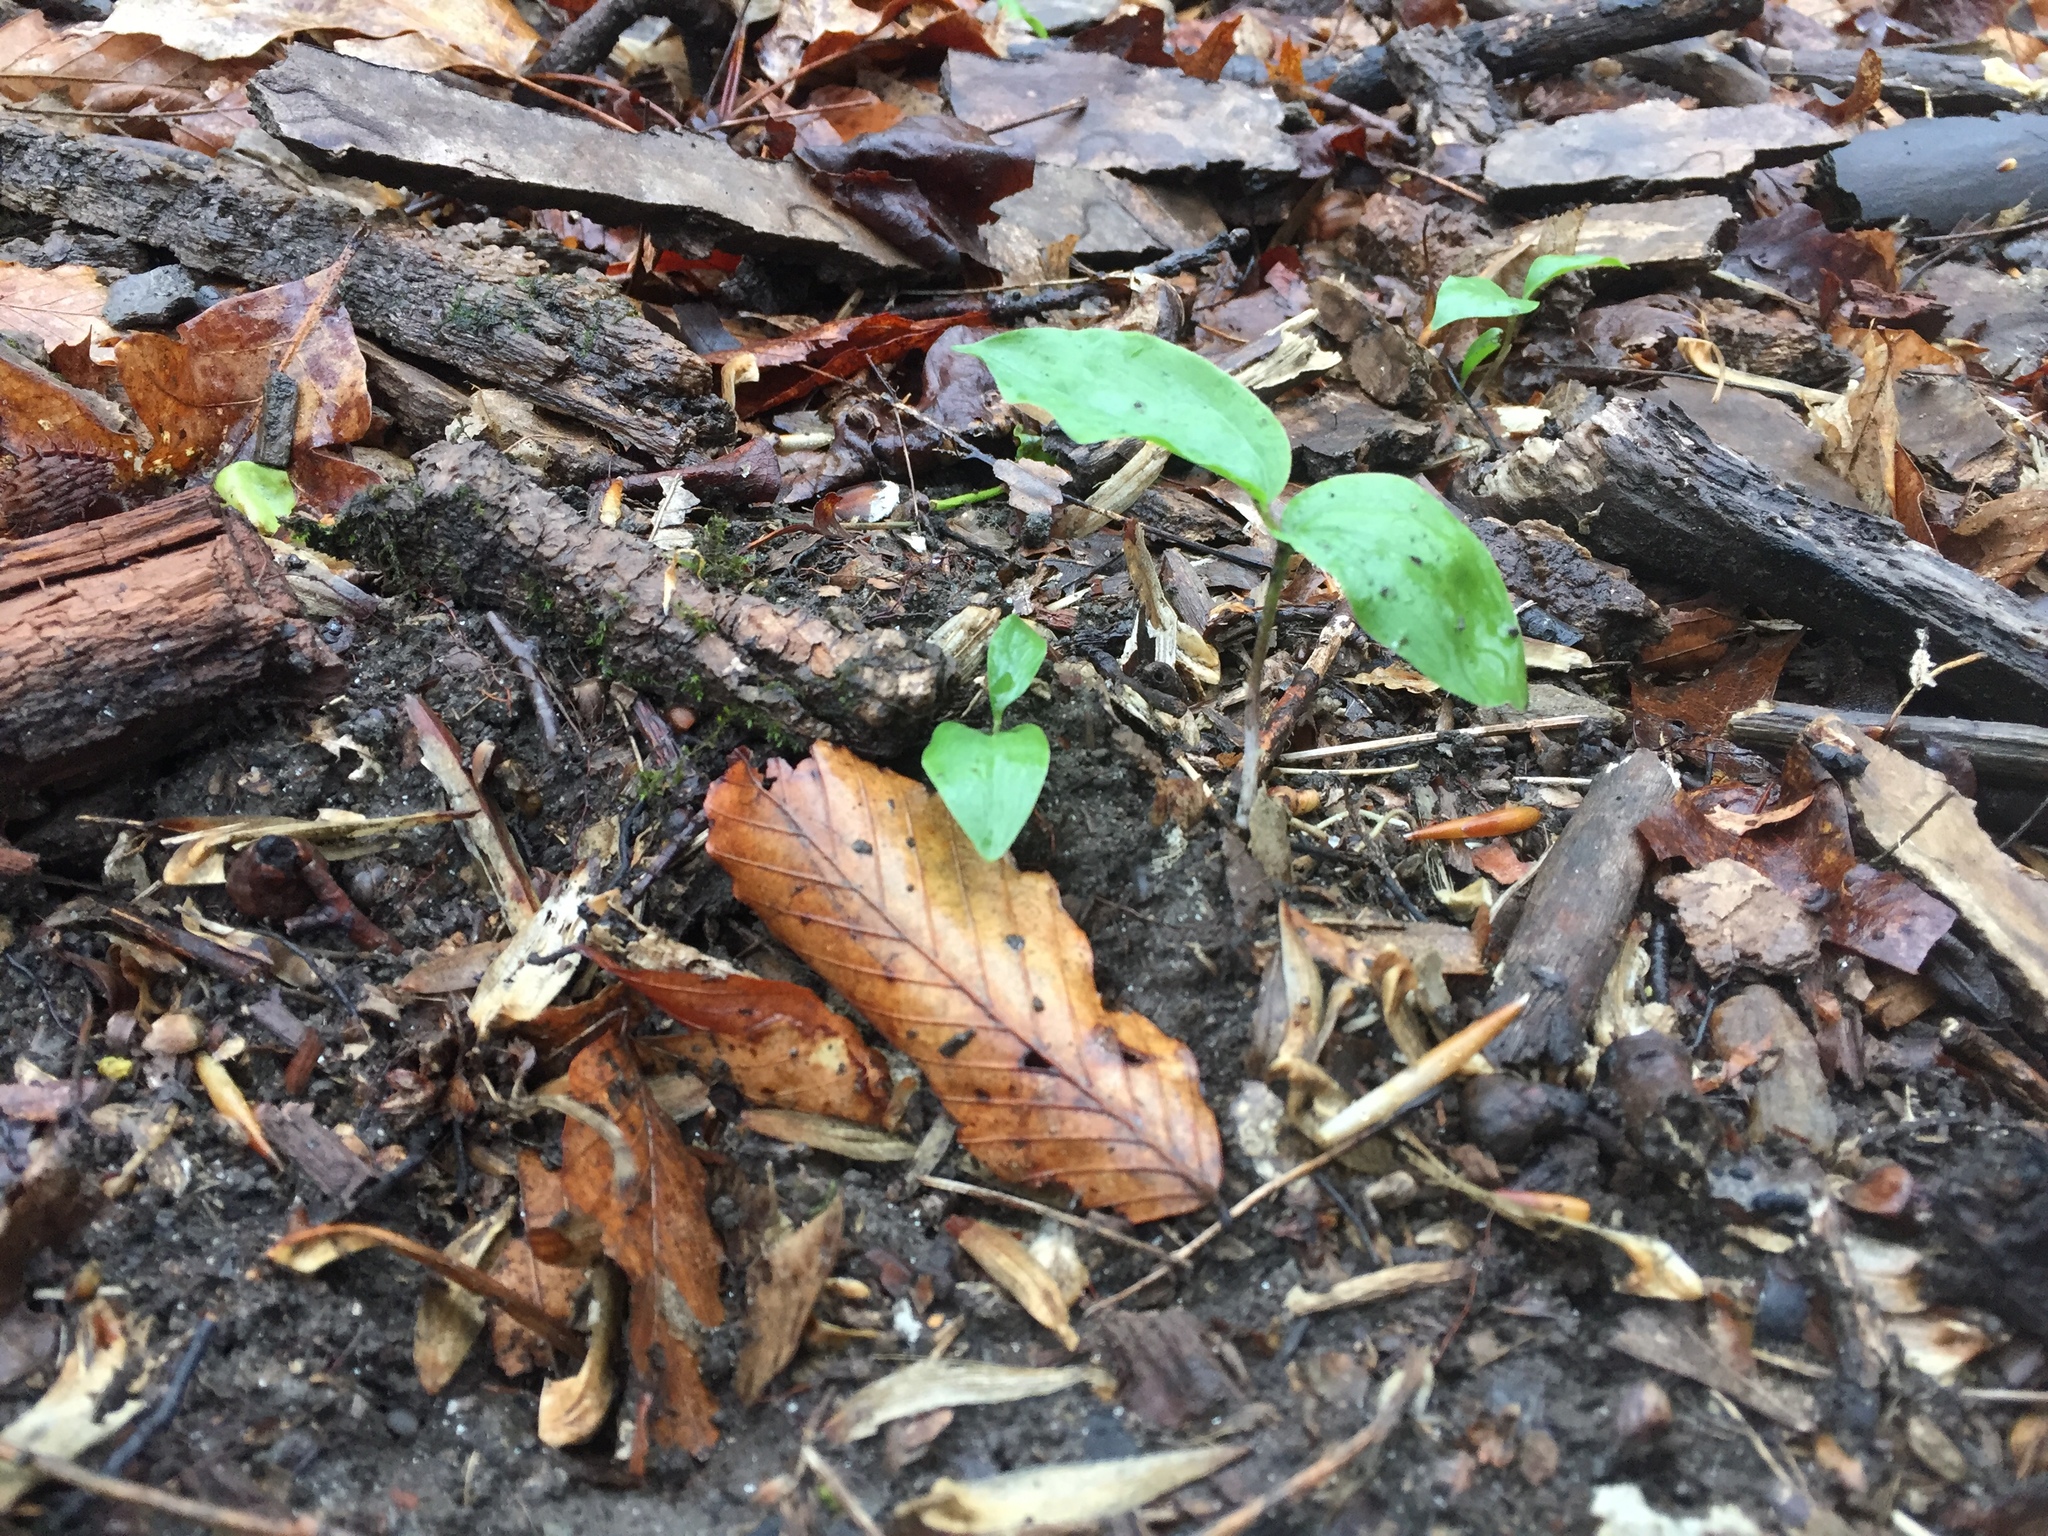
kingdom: Plantae
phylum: Tracheophyta
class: Liliopsida
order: Asparagales
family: Asparagaceae
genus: Maianthemum
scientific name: Maianthemum racemosum
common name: False spikenard
